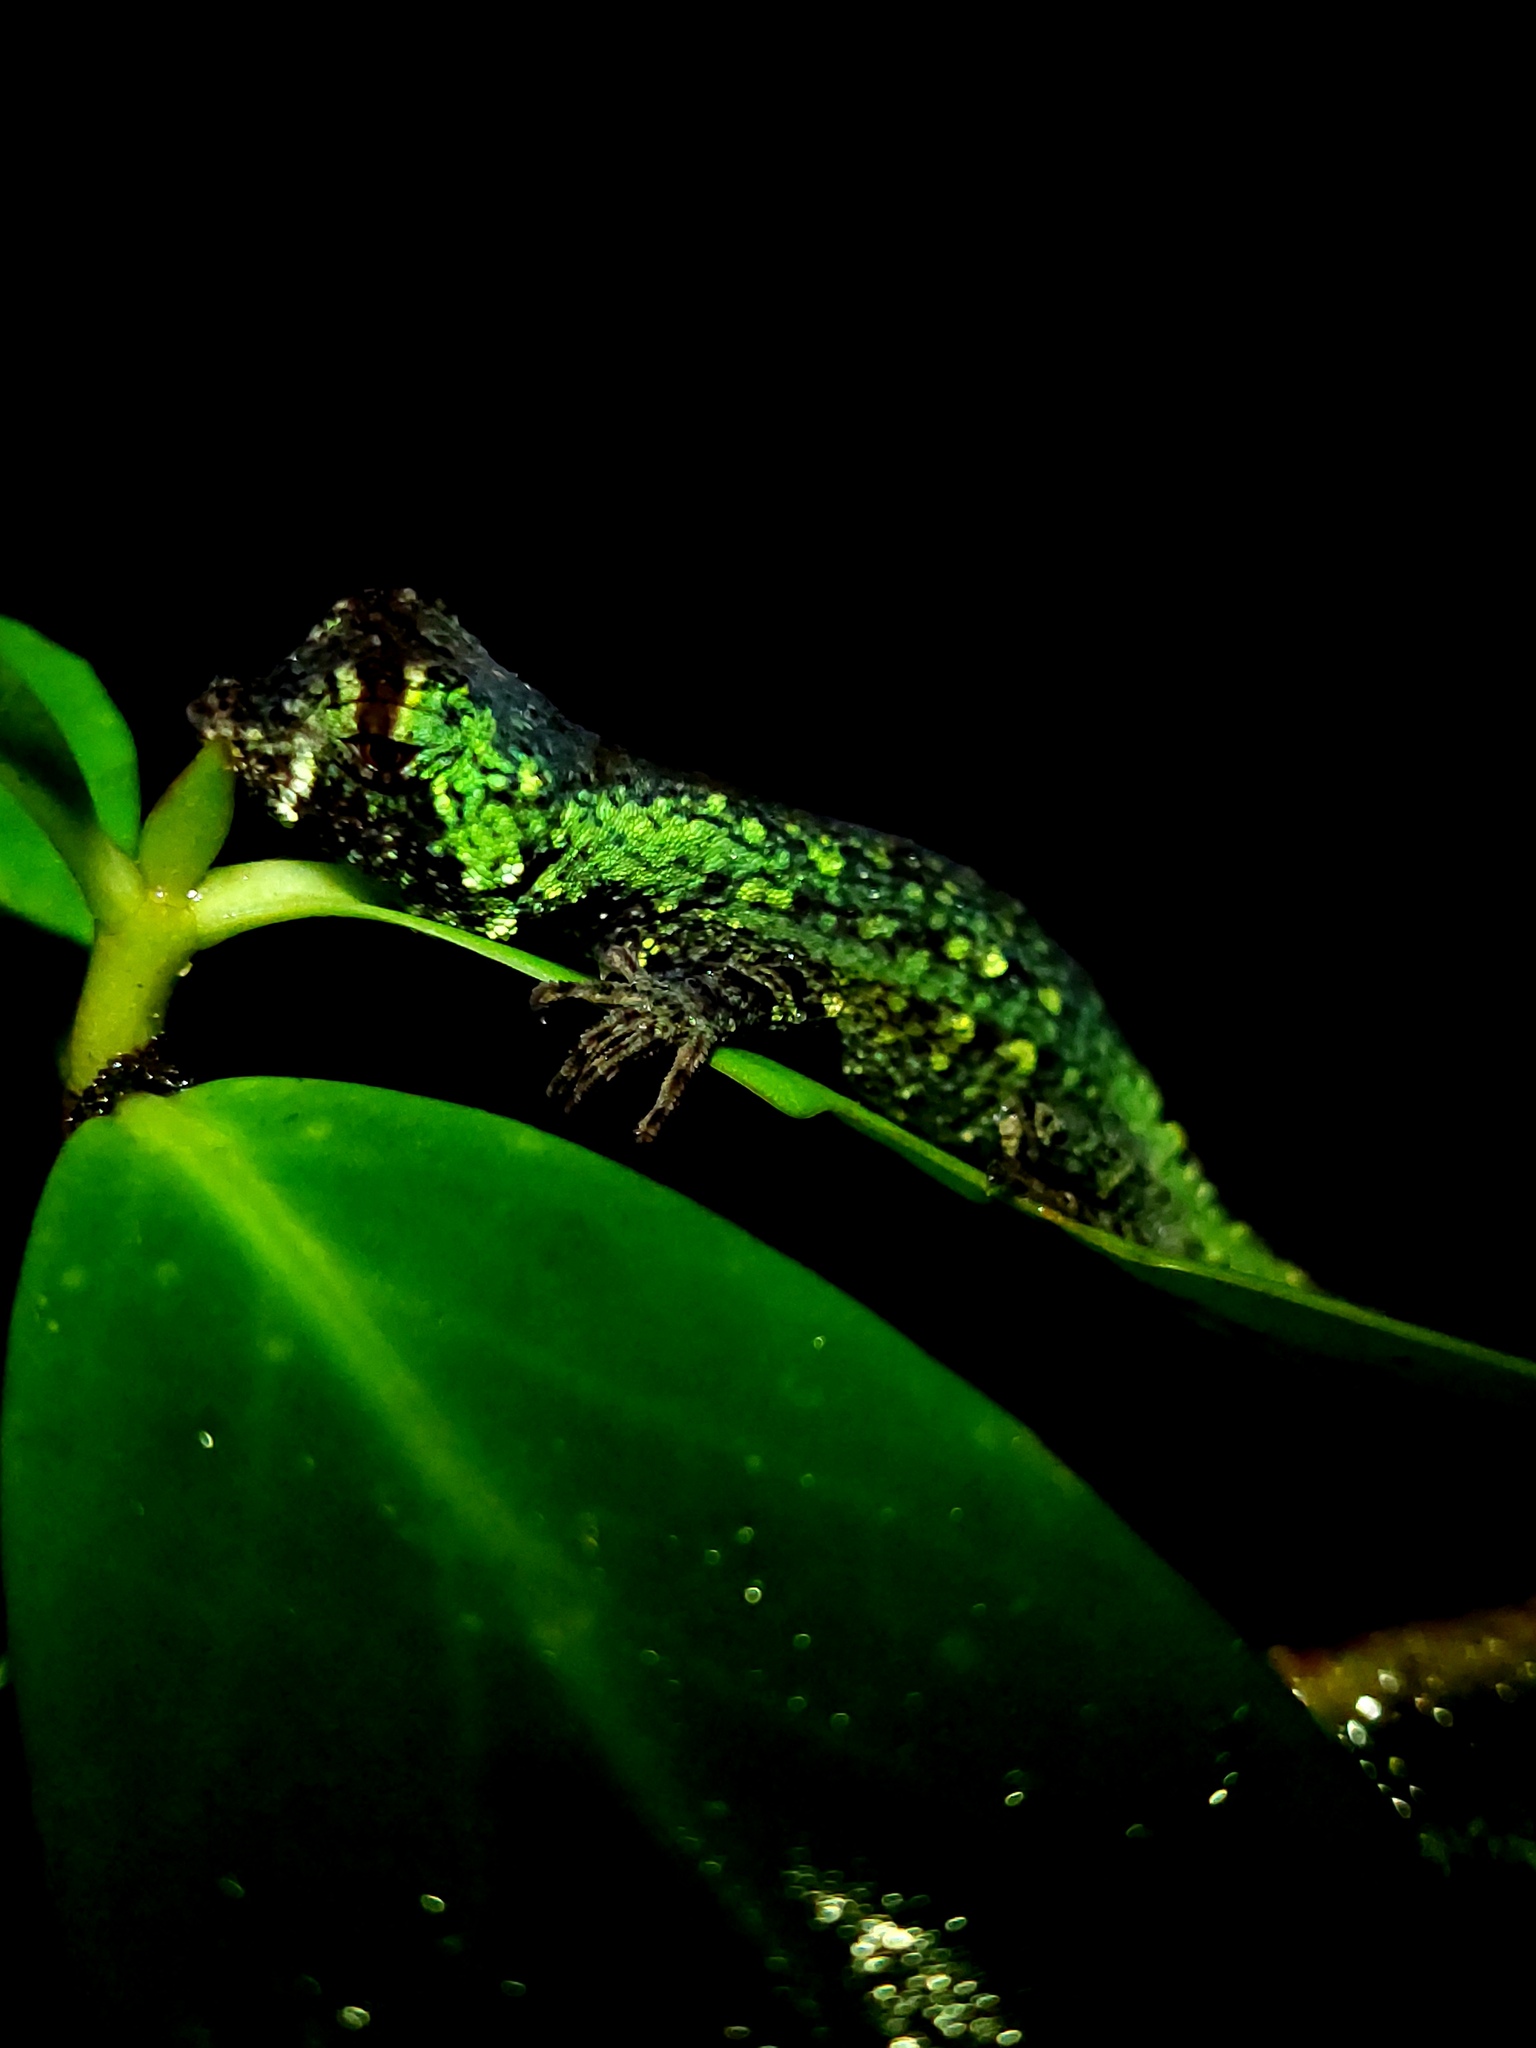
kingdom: Animalia
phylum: Chordata
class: Squamata
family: Dactyloidae
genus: Anolis
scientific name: Anolis capito
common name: Bighead anole
